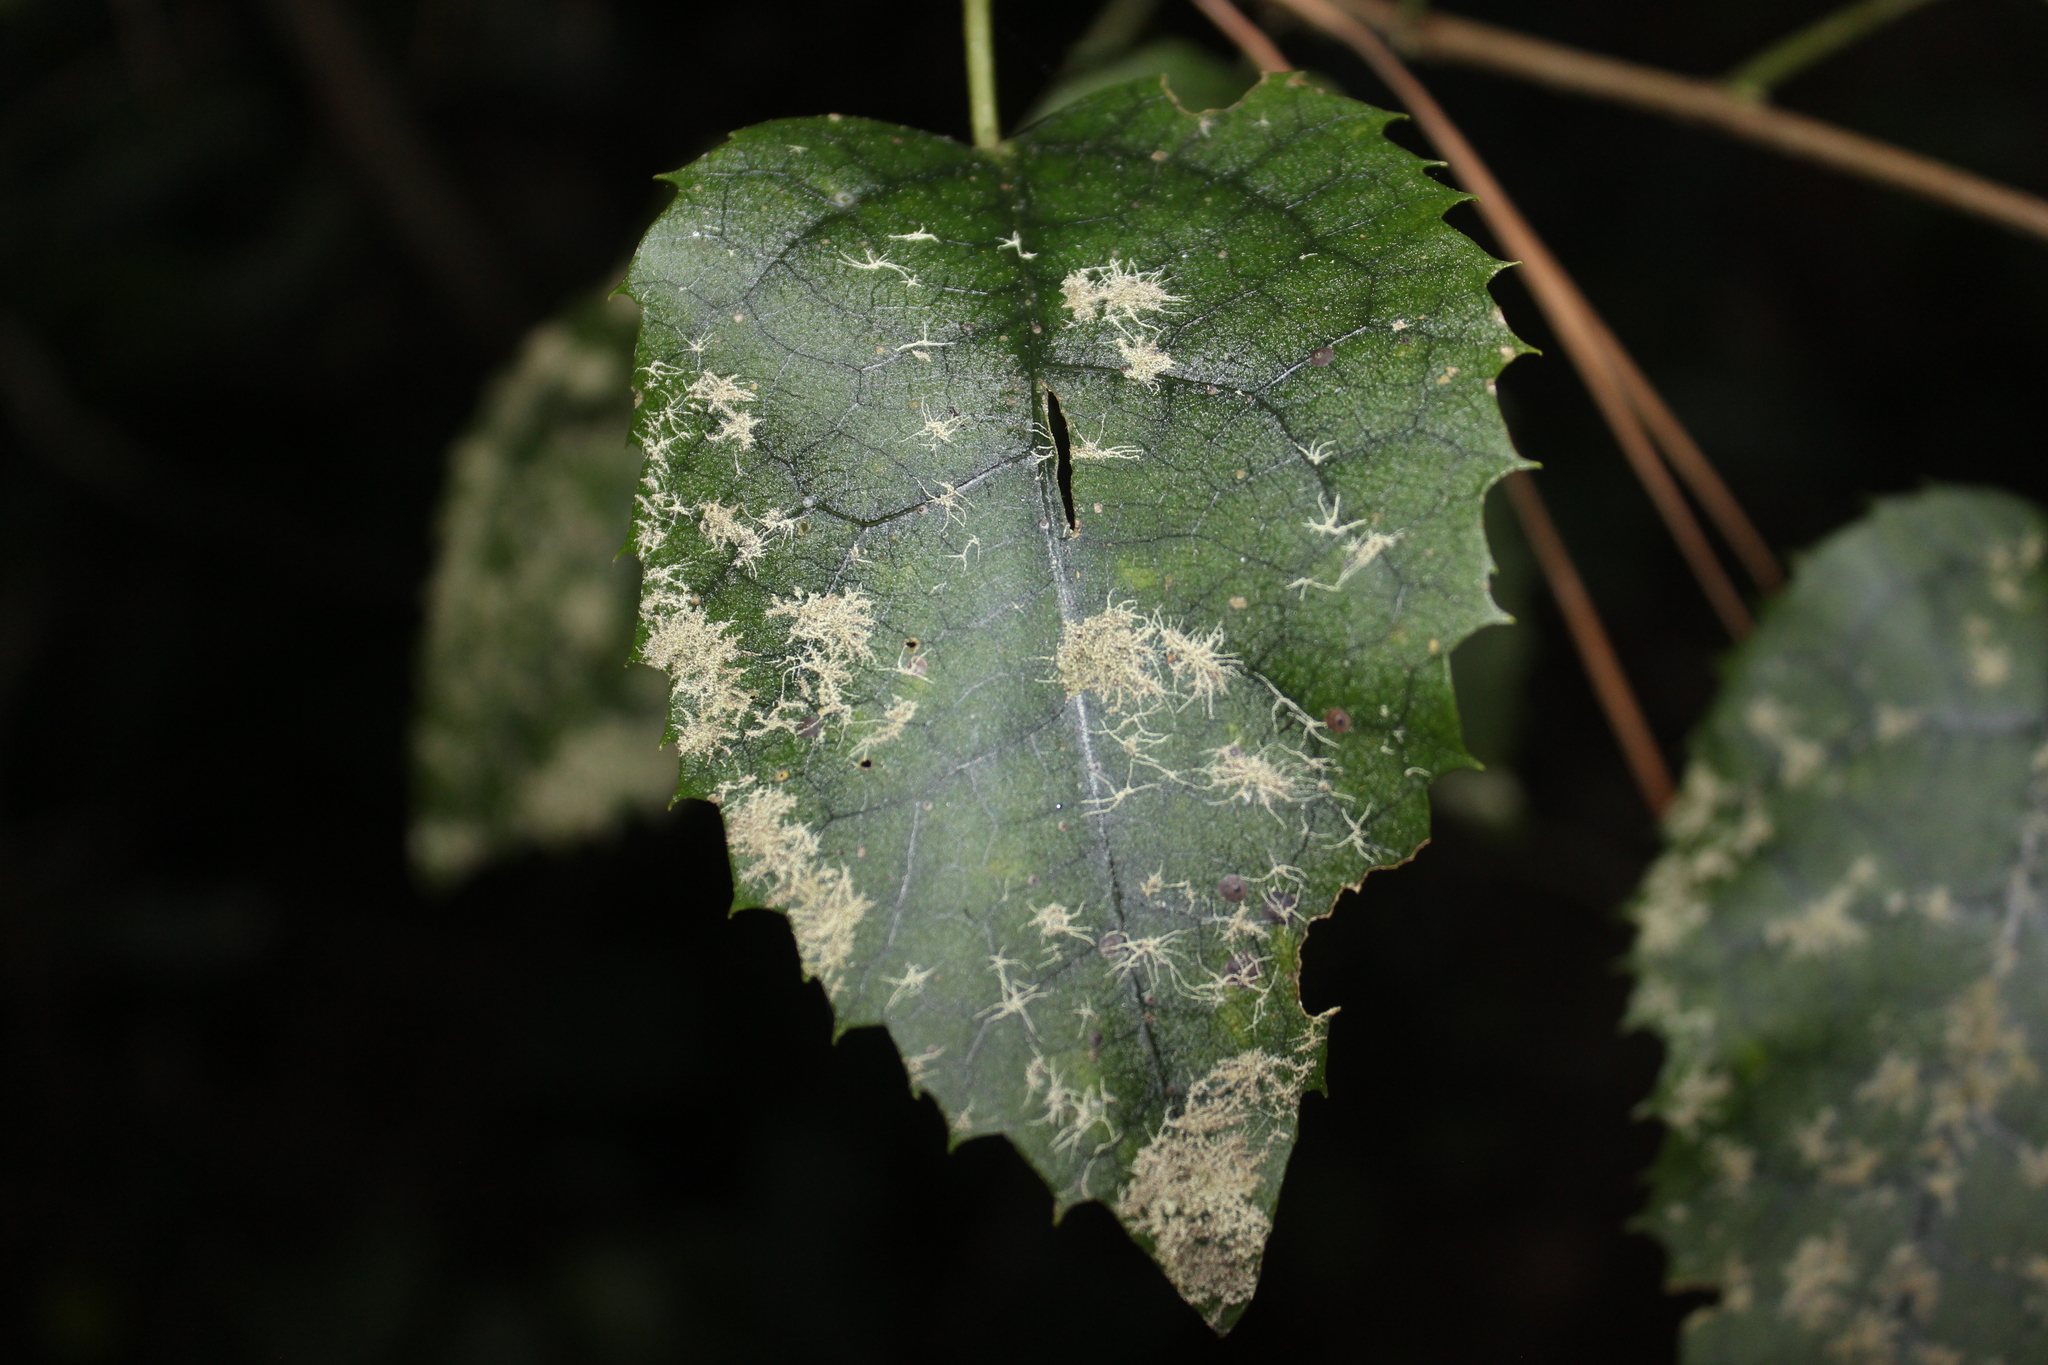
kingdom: Plantae
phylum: Tracheophyta
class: Magnoliopsida
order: Malvales
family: Malvaceae
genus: Hoheria
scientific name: Hoheria populnea
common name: Lacebark
